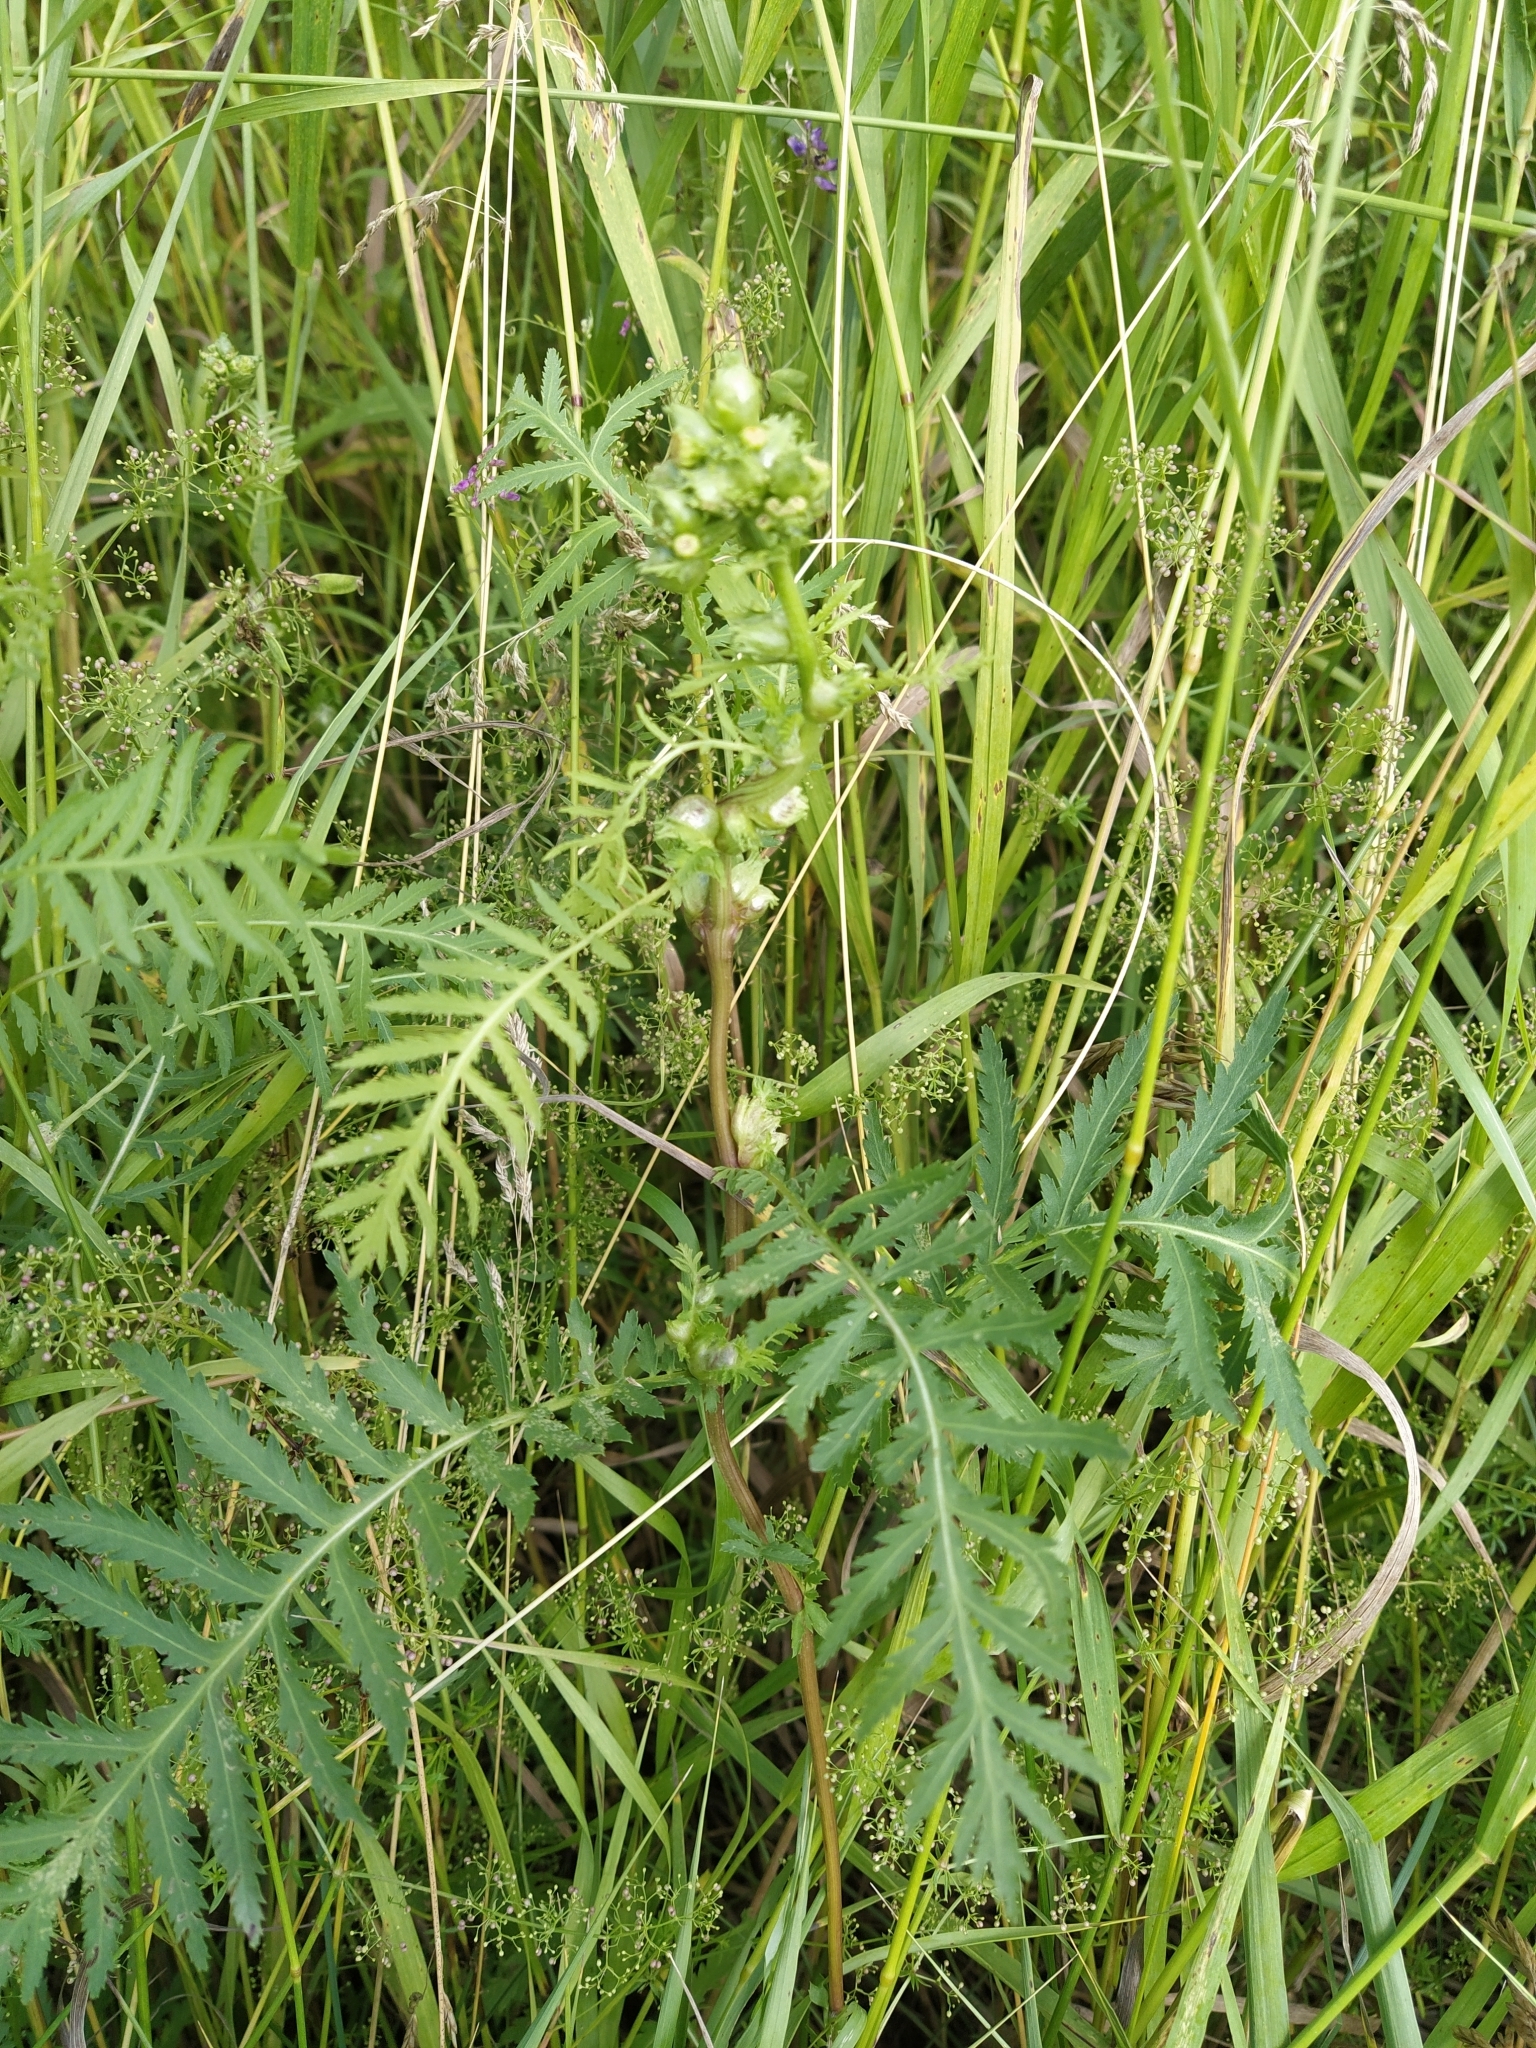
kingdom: Plantae
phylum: Tracheophyta
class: Magnoliopsida
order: Asterales
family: Asteraceae
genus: Tanacetum
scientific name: Tanacetum vulgare
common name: Common tansy
